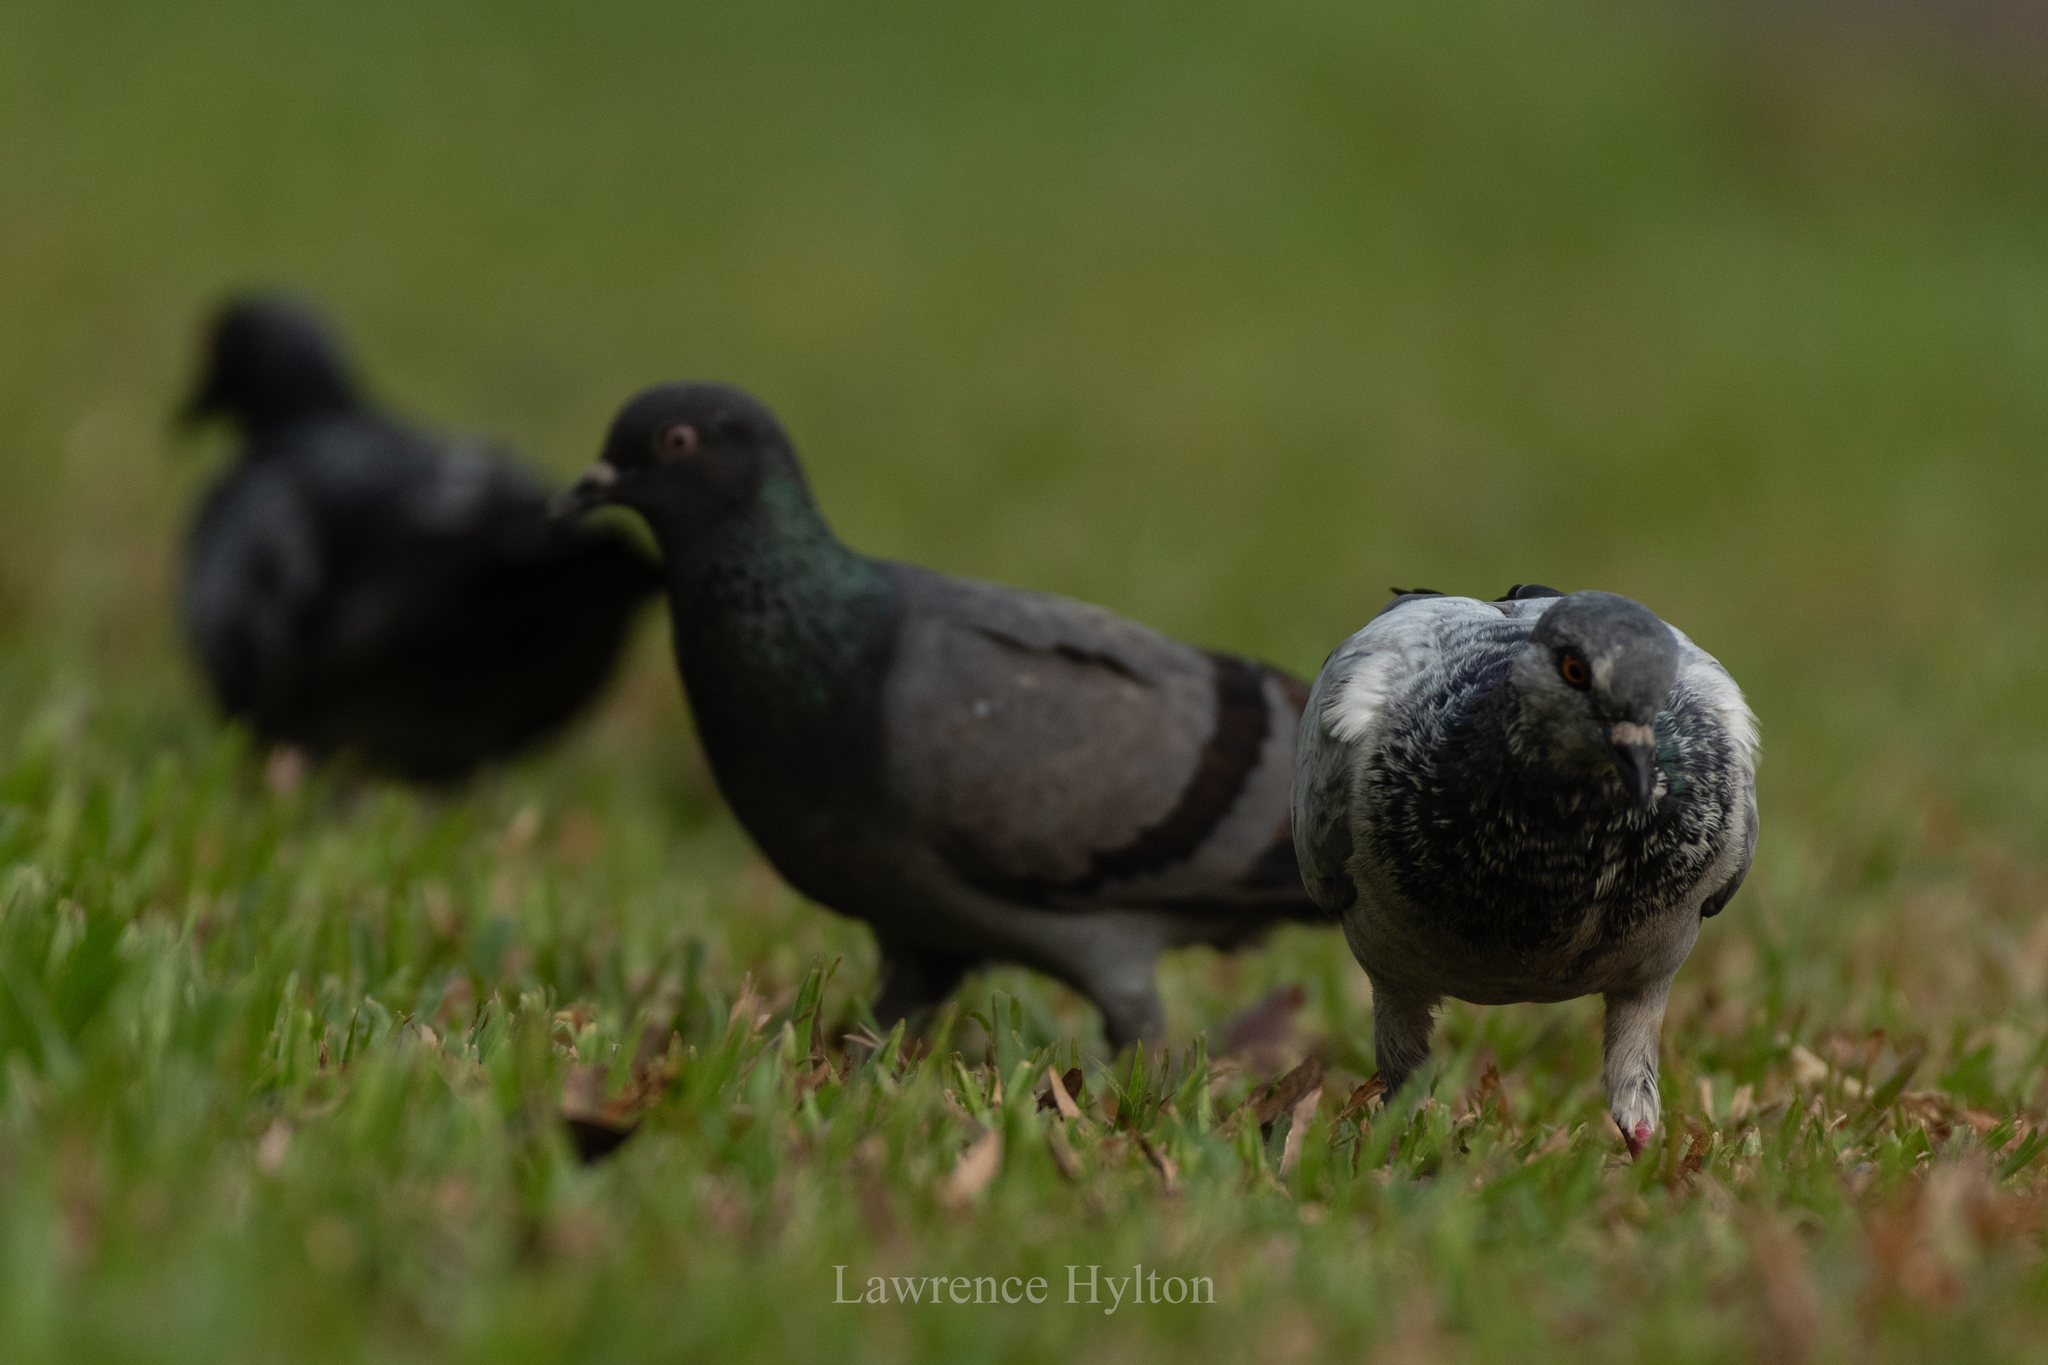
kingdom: Animalia
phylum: Chordata
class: Aves
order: Columbiformes
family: Columbidae
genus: Columba
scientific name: Columba livia
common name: Rock pigeon
